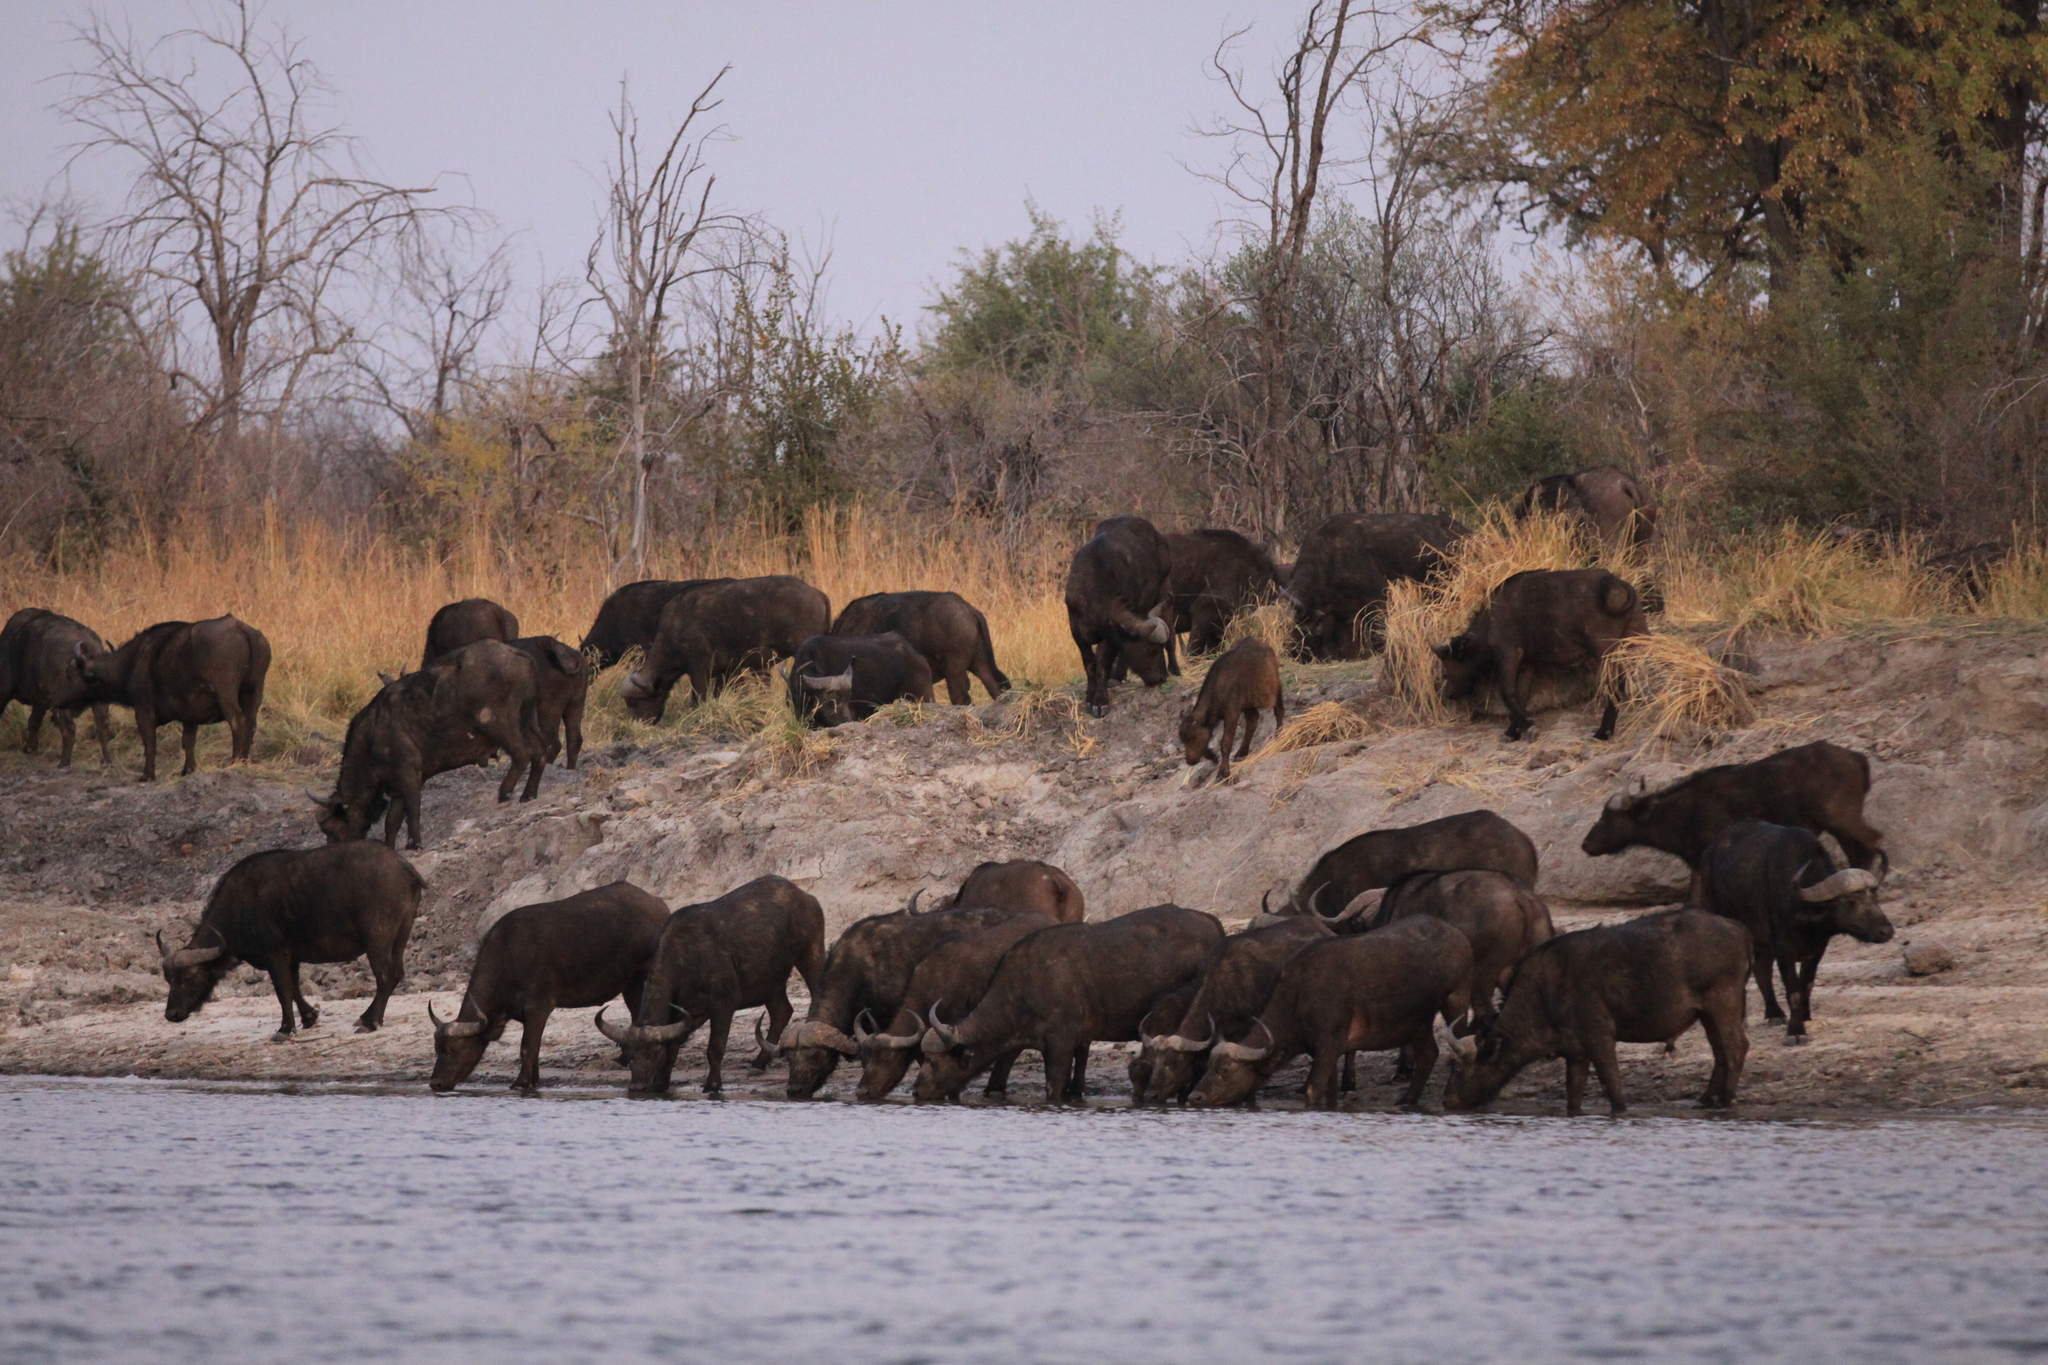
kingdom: Animalia
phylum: Chordata
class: Mammalia
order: Artiodactyla
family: Bovidae
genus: Syncerus
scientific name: Syncerus caffer
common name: African buffalo
